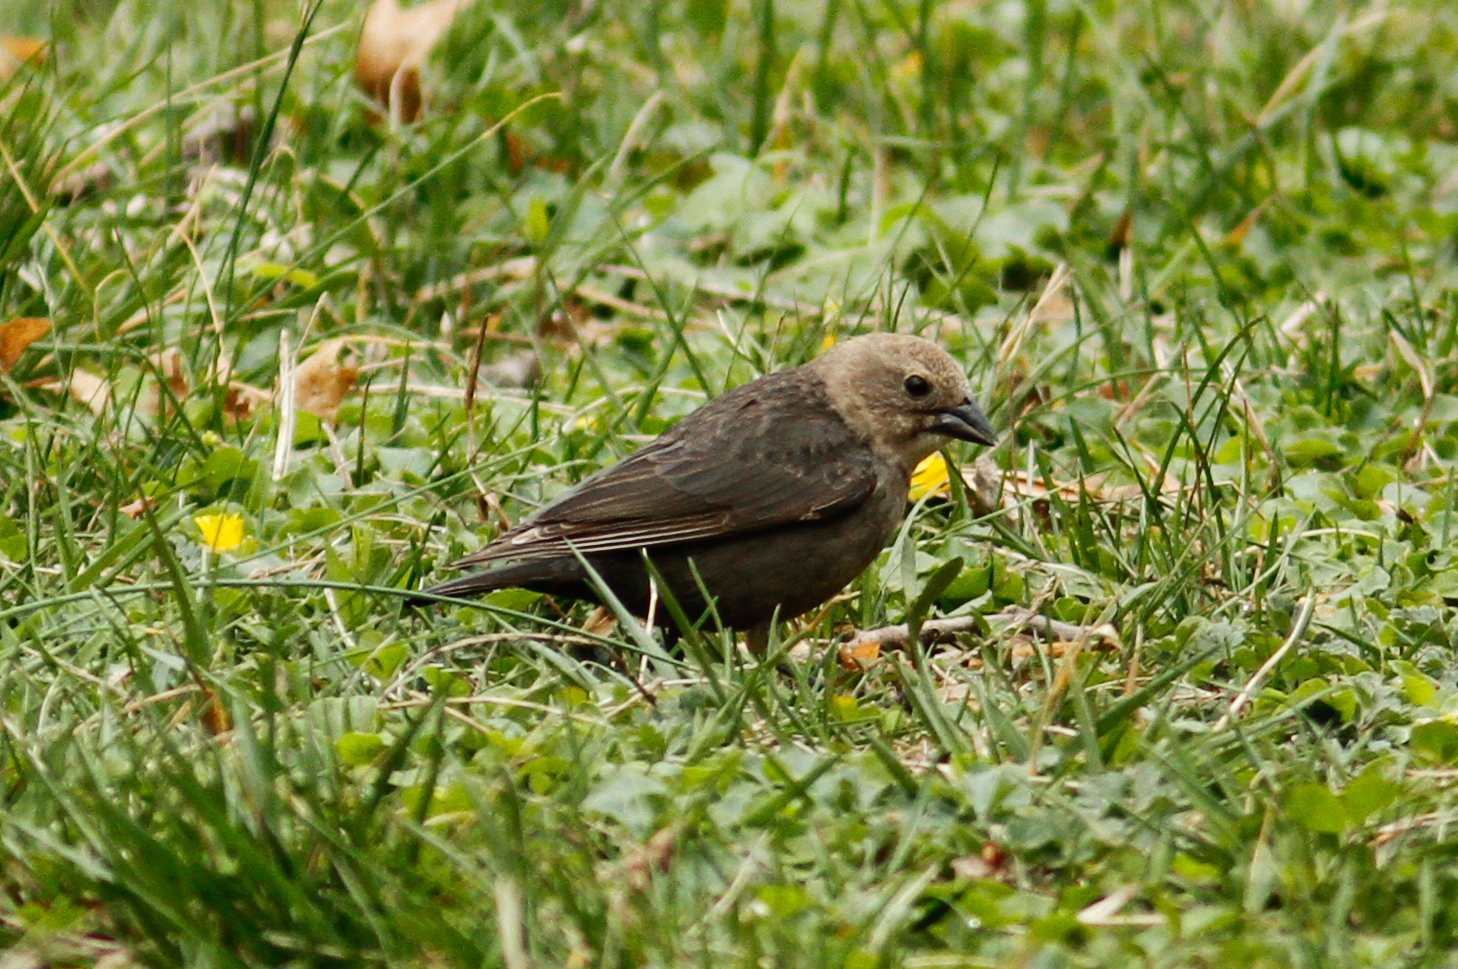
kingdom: Animalia
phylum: Chordata
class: Aves
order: Passeriformes
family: Icteridae
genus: Molothrus
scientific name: Molothrus ater
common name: Brown-headed cowbird
